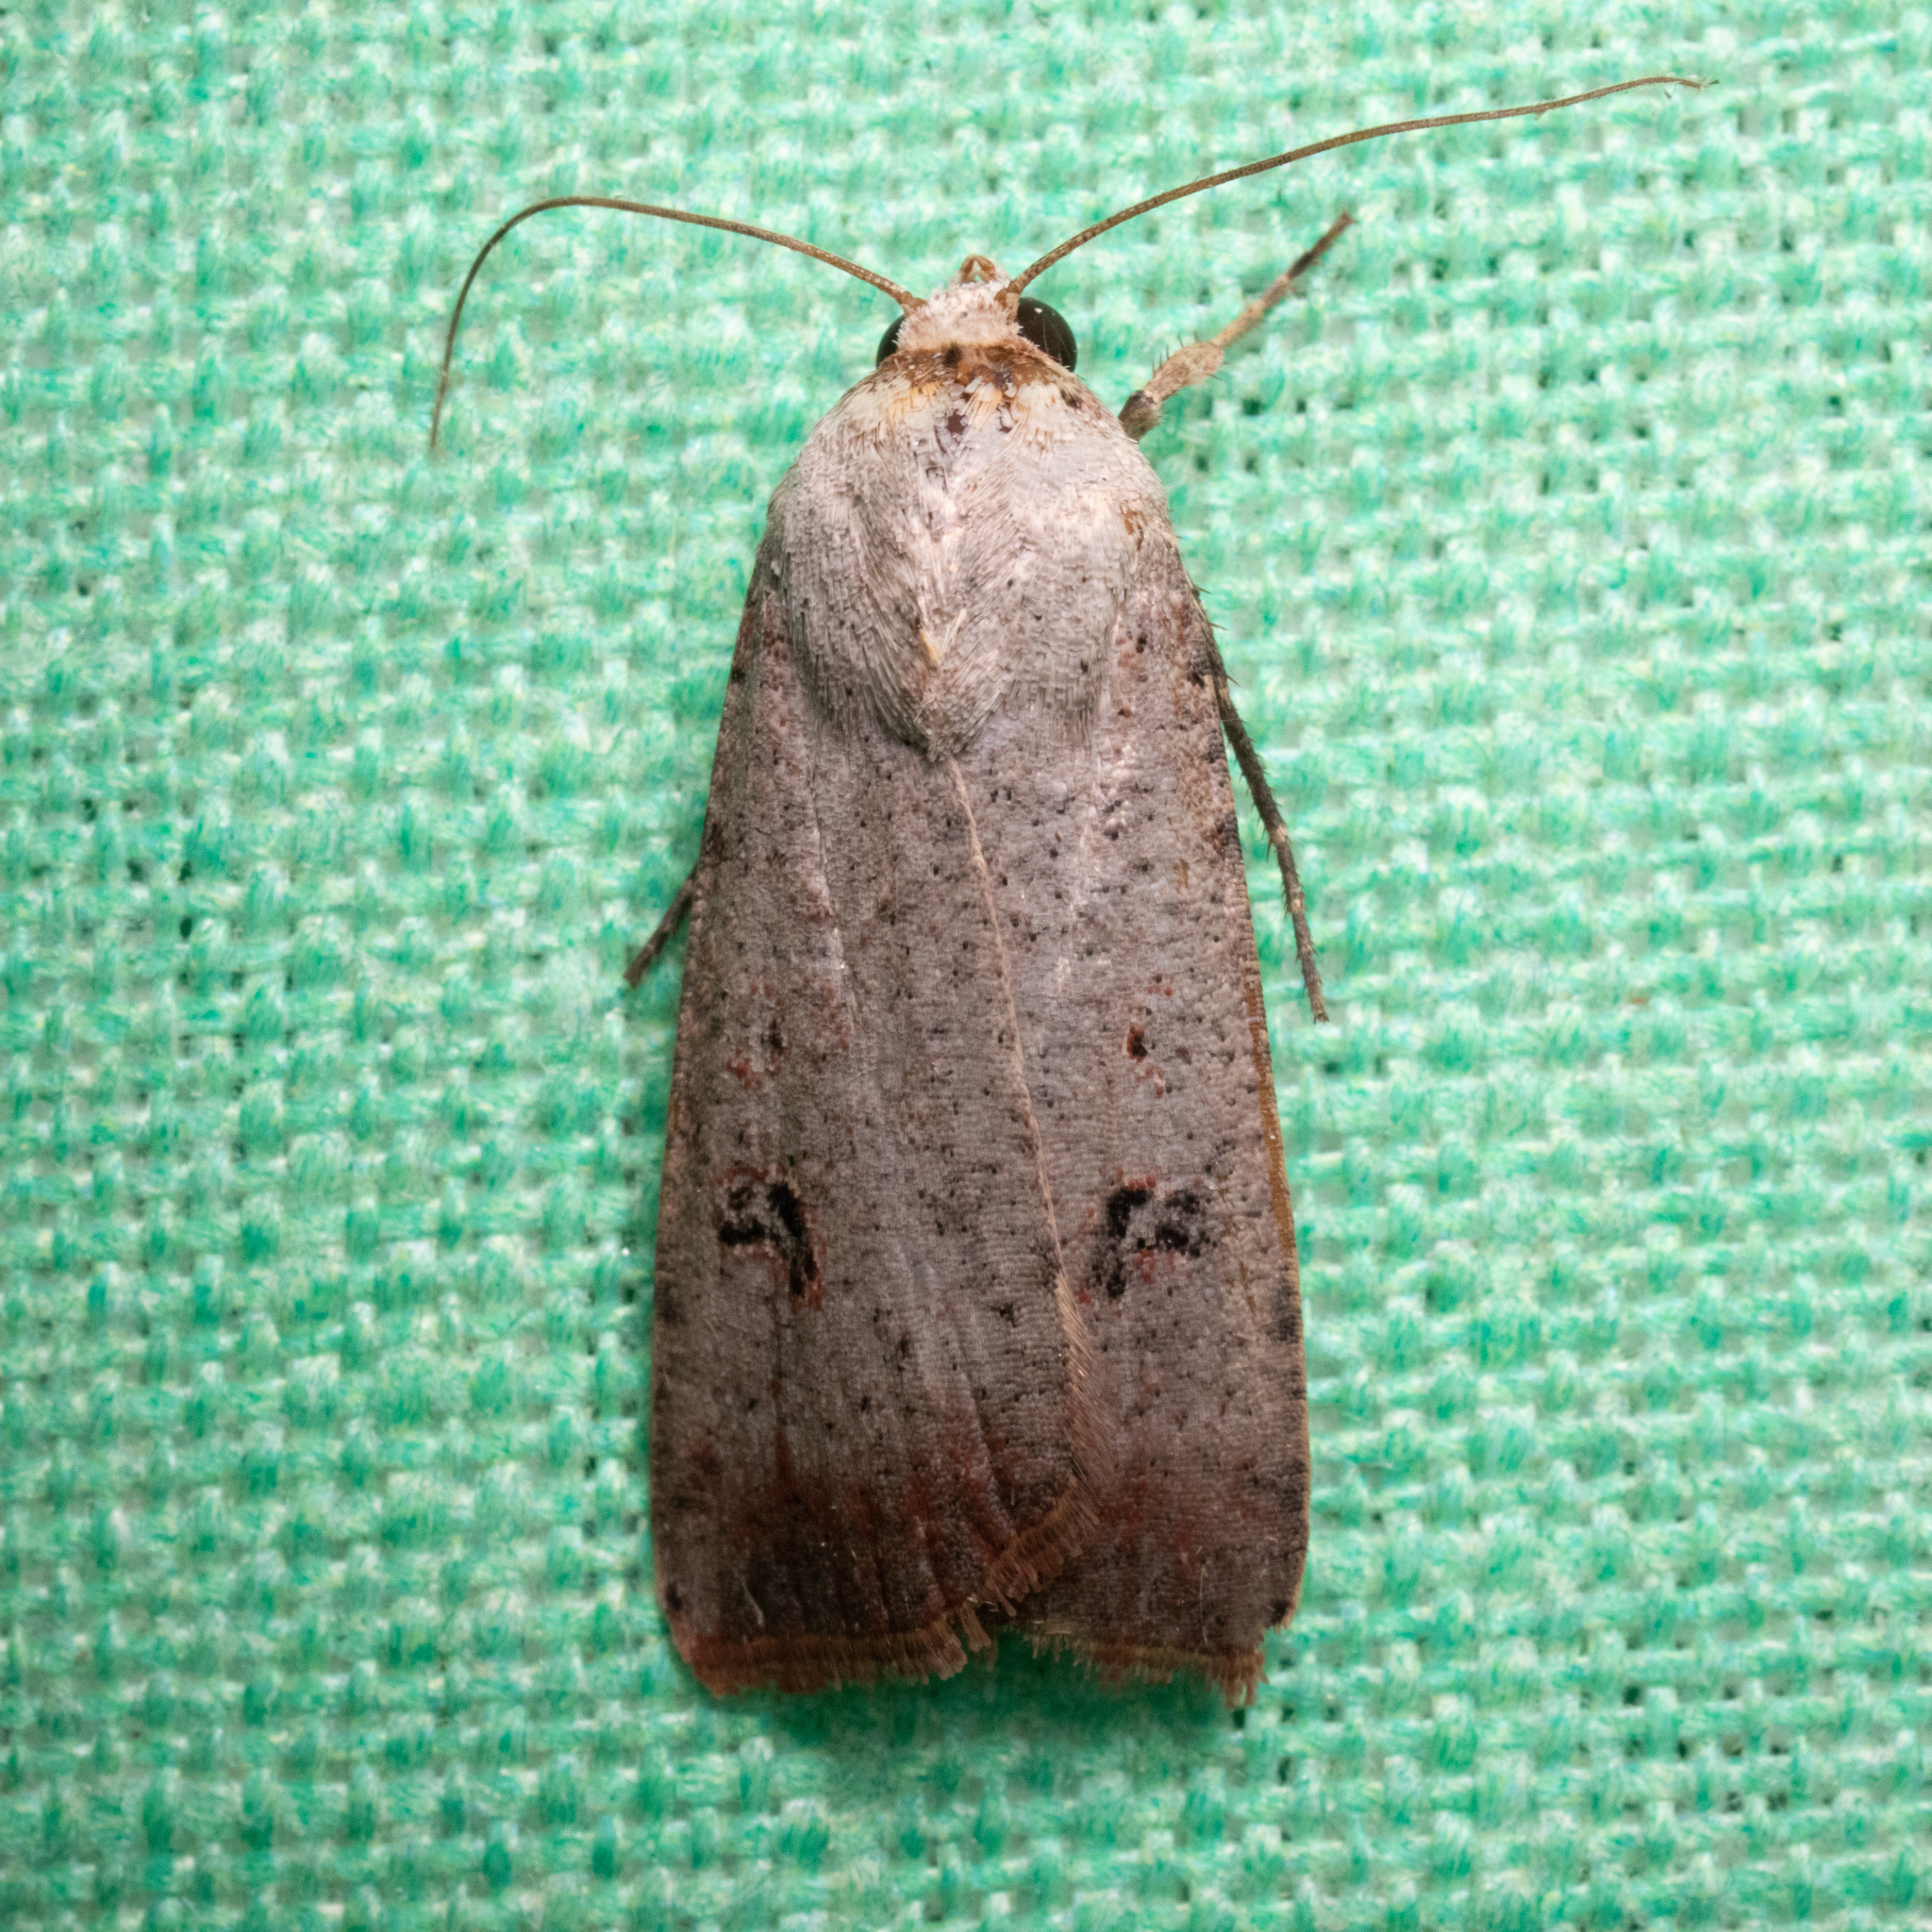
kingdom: Animalia
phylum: Arthropoda
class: Insecta
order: Lepidoptera
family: Noctuidae
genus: Anicla
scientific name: Anicla infecta
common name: Green cutworm
